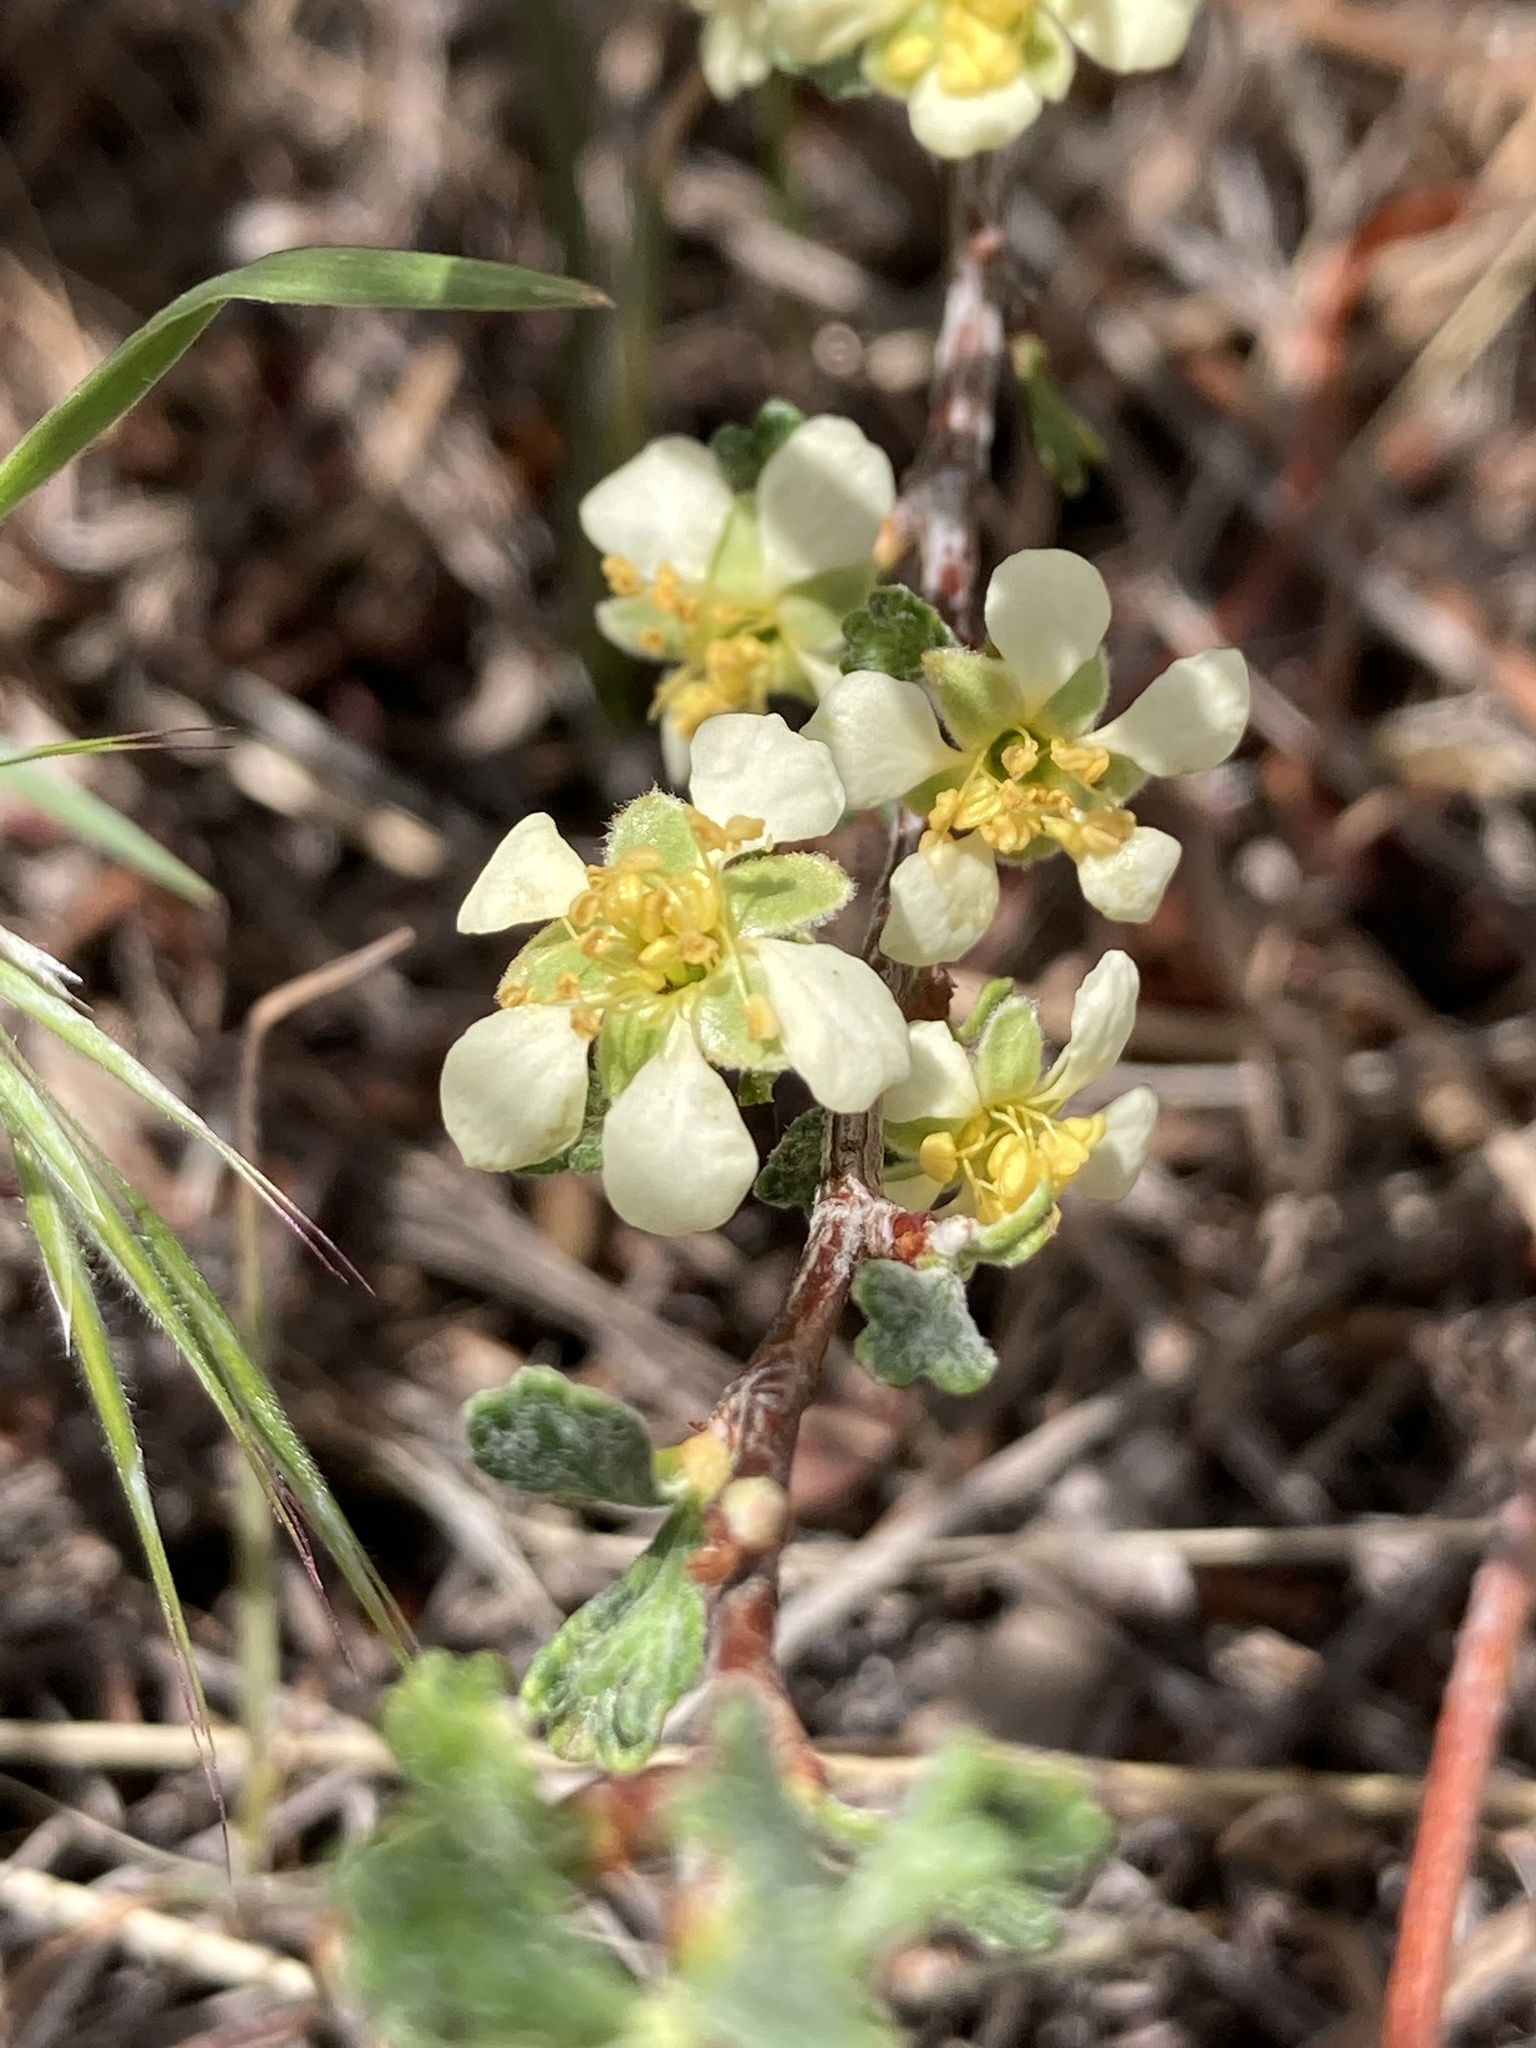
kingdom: Plantae
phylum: Tracheophyta
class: Magnoliopsida
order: Rosales
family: Rosaceae
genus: Purshia
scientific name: Purshia tridentata
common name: Antelope bitterbrush
